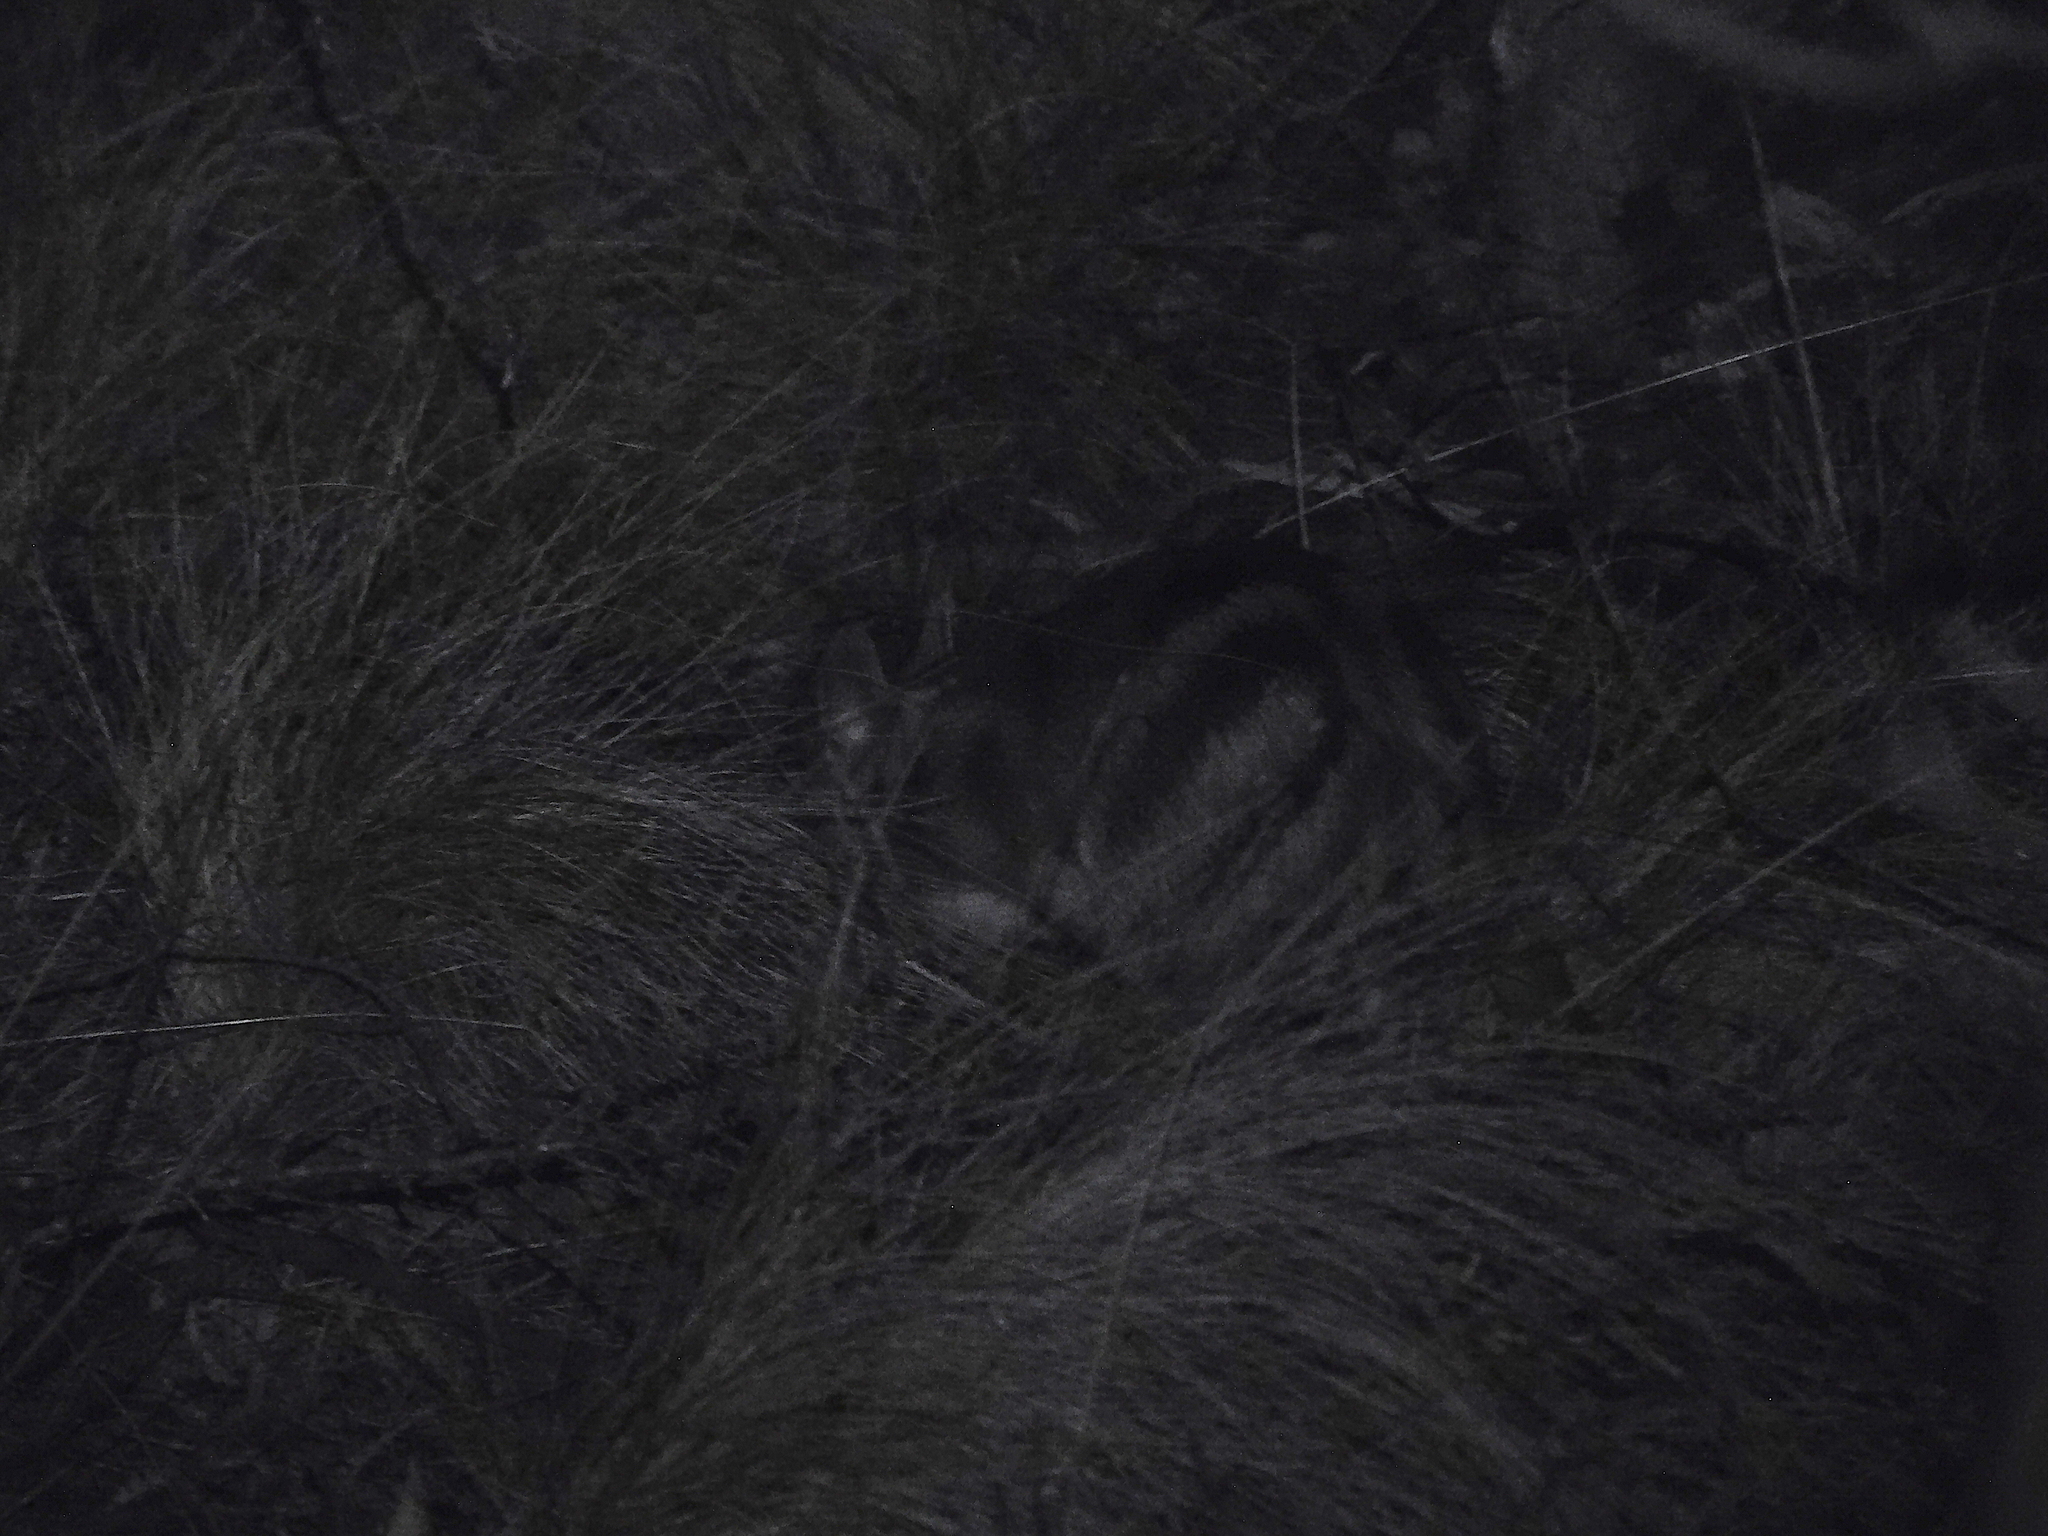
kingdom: Animalia
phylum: Chordata
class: Mammalia
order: Peramelemorphia
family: Peramelidae
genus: Perameles
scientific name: Perameles gunnii
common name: Eastern barred bandicoot
